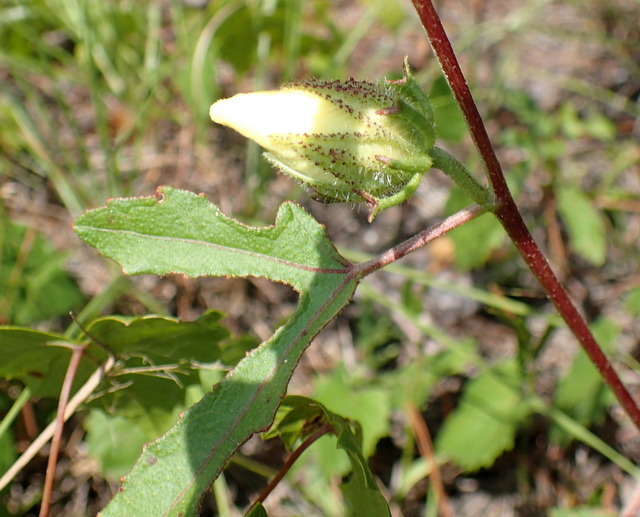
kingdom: Plantae
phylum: Tracheophyta
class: Magnoliopsida
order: Malvales
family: Malvaceae
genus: Hibiscus
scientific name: Hibiscus aculeatus
